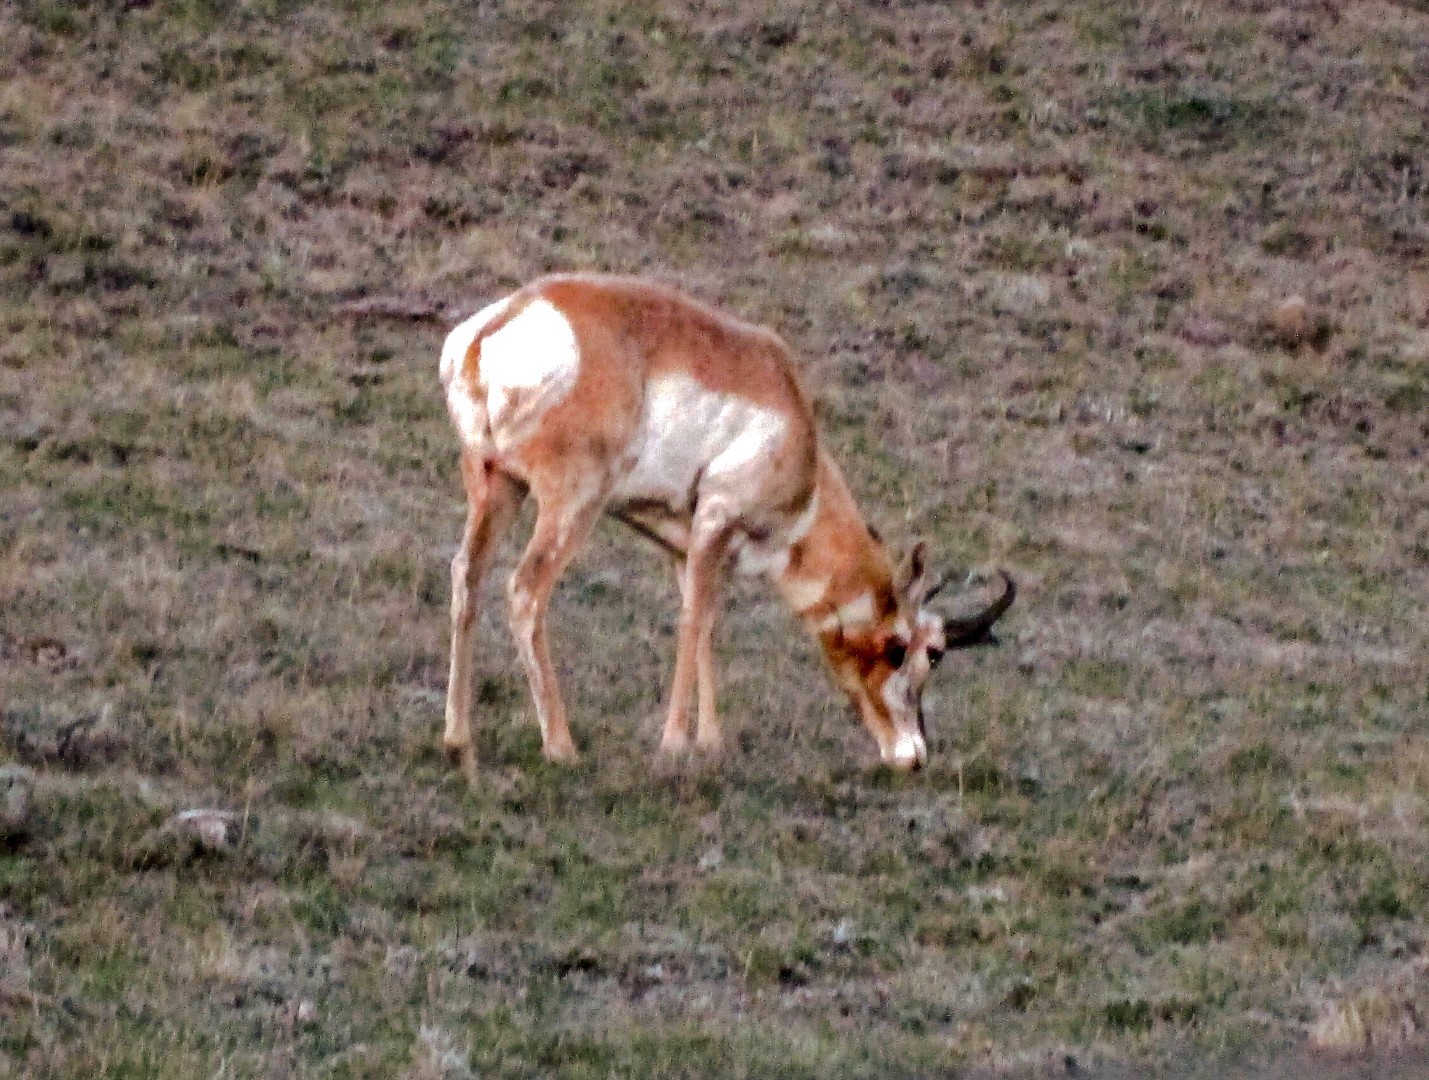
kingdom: Animalia
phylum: Chordata
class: Mammalia
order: Artiodactyla
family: Antilocapridae
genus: Antilocapra
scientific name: Antilocapra americana
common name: Pronghorn
